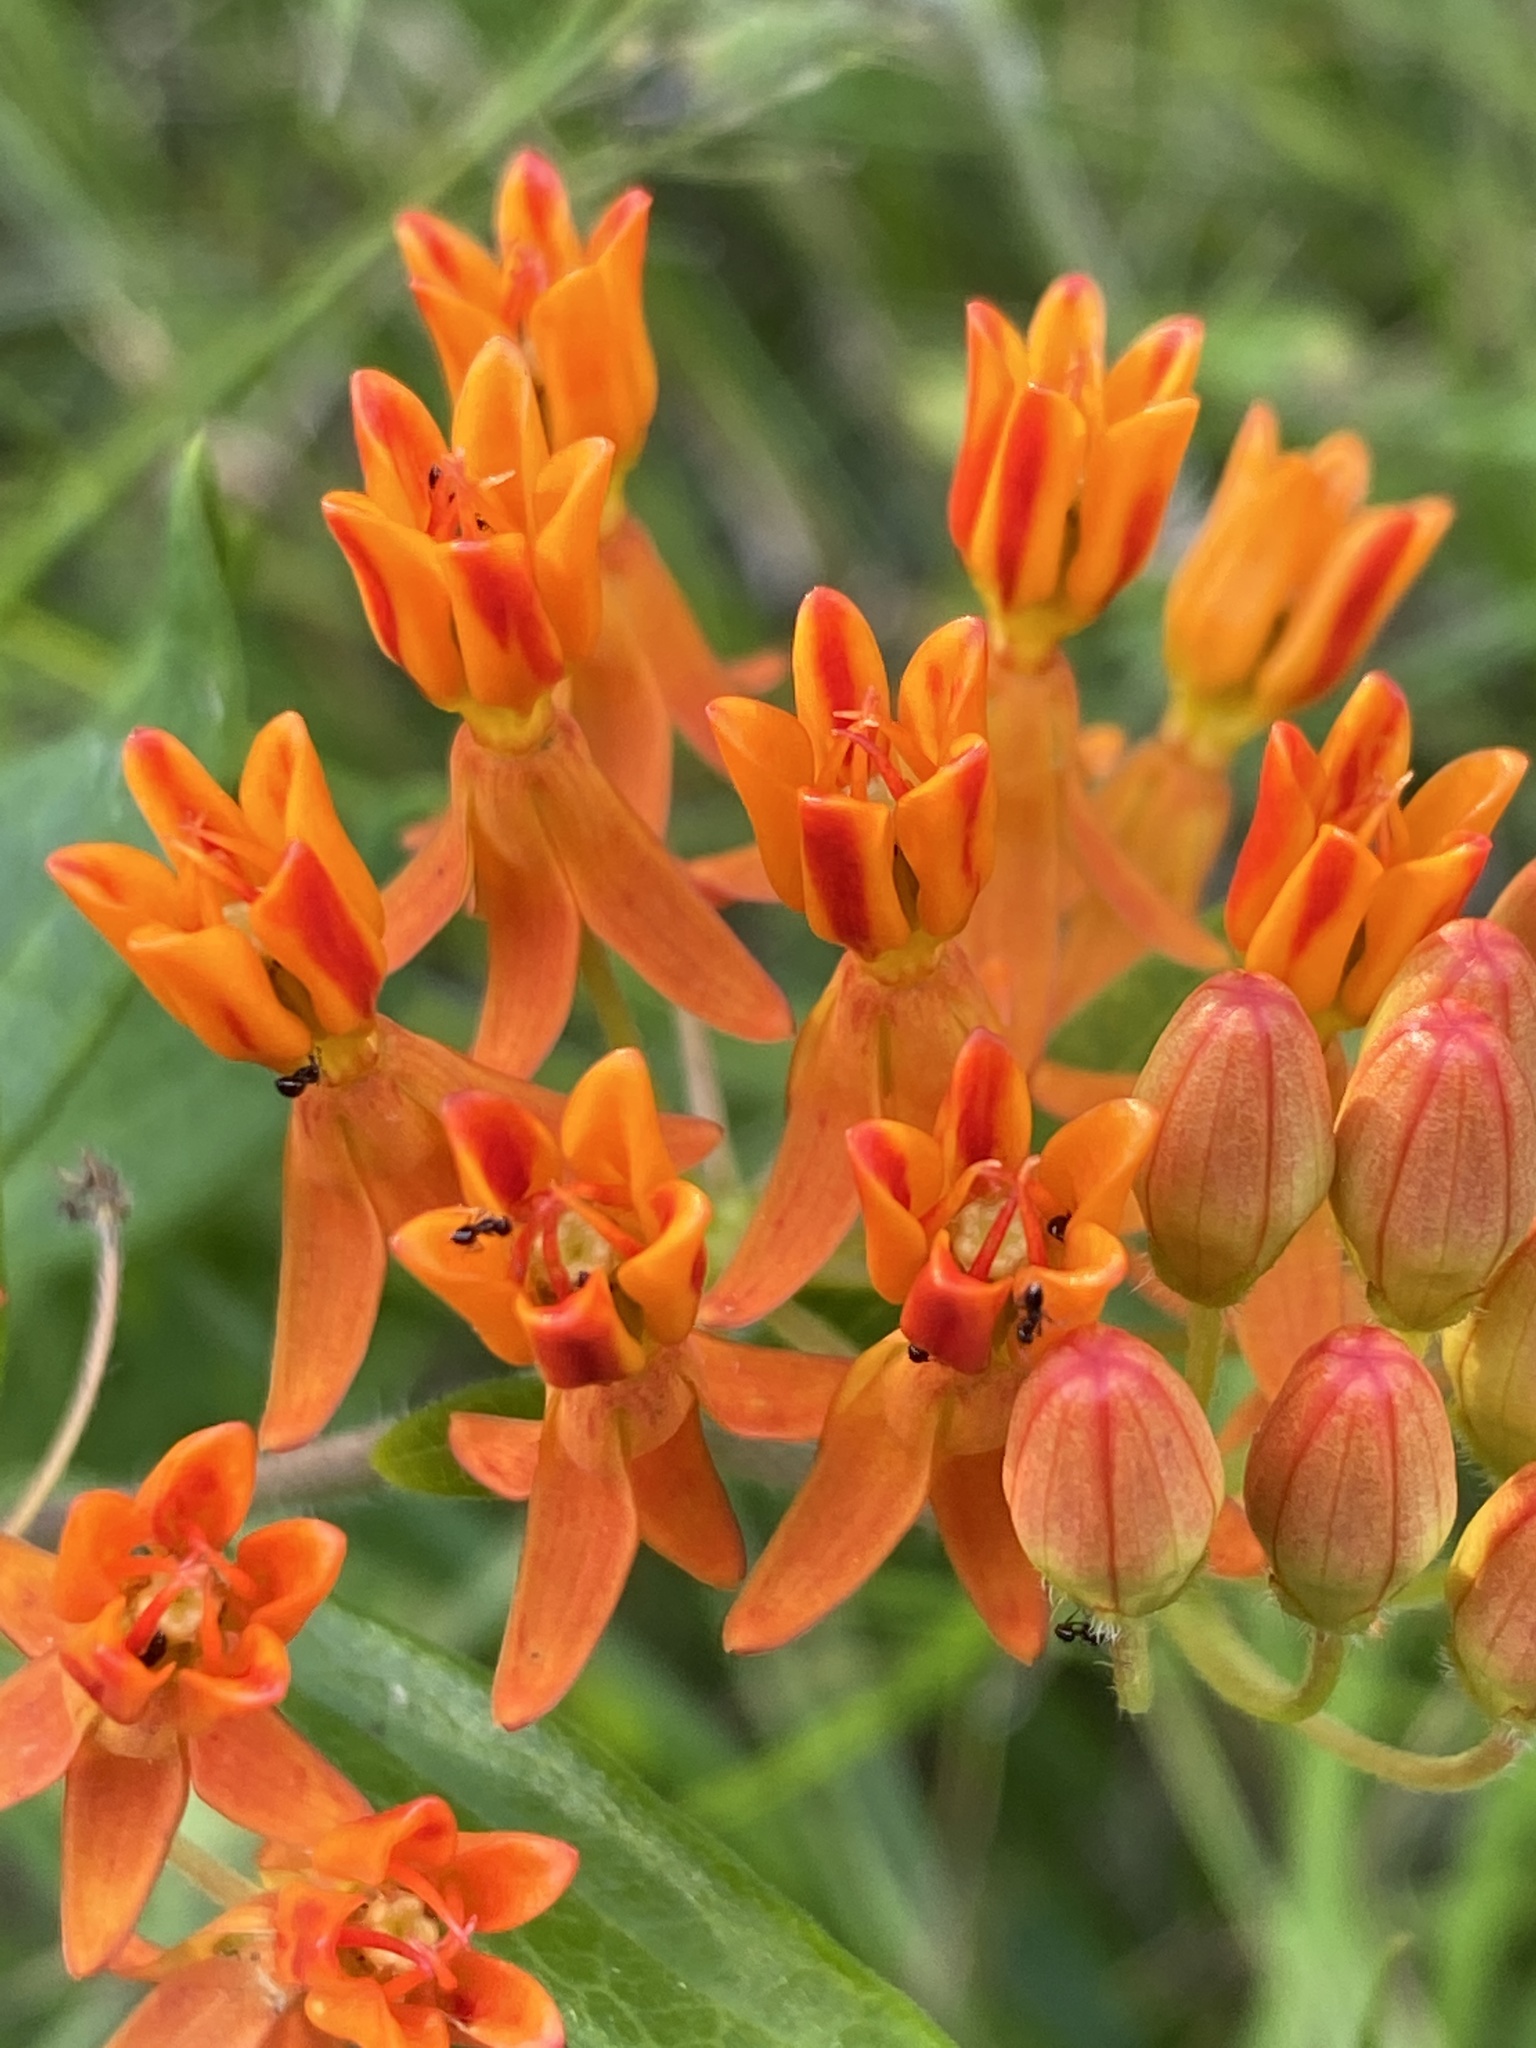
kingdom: Plantae
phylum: Tracheophyta
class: Magnoliopsida
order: Gentianales
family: Apocynaceae
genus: Asclepias
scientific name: Asclepias tuberosa
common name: Butterfly milkweed
